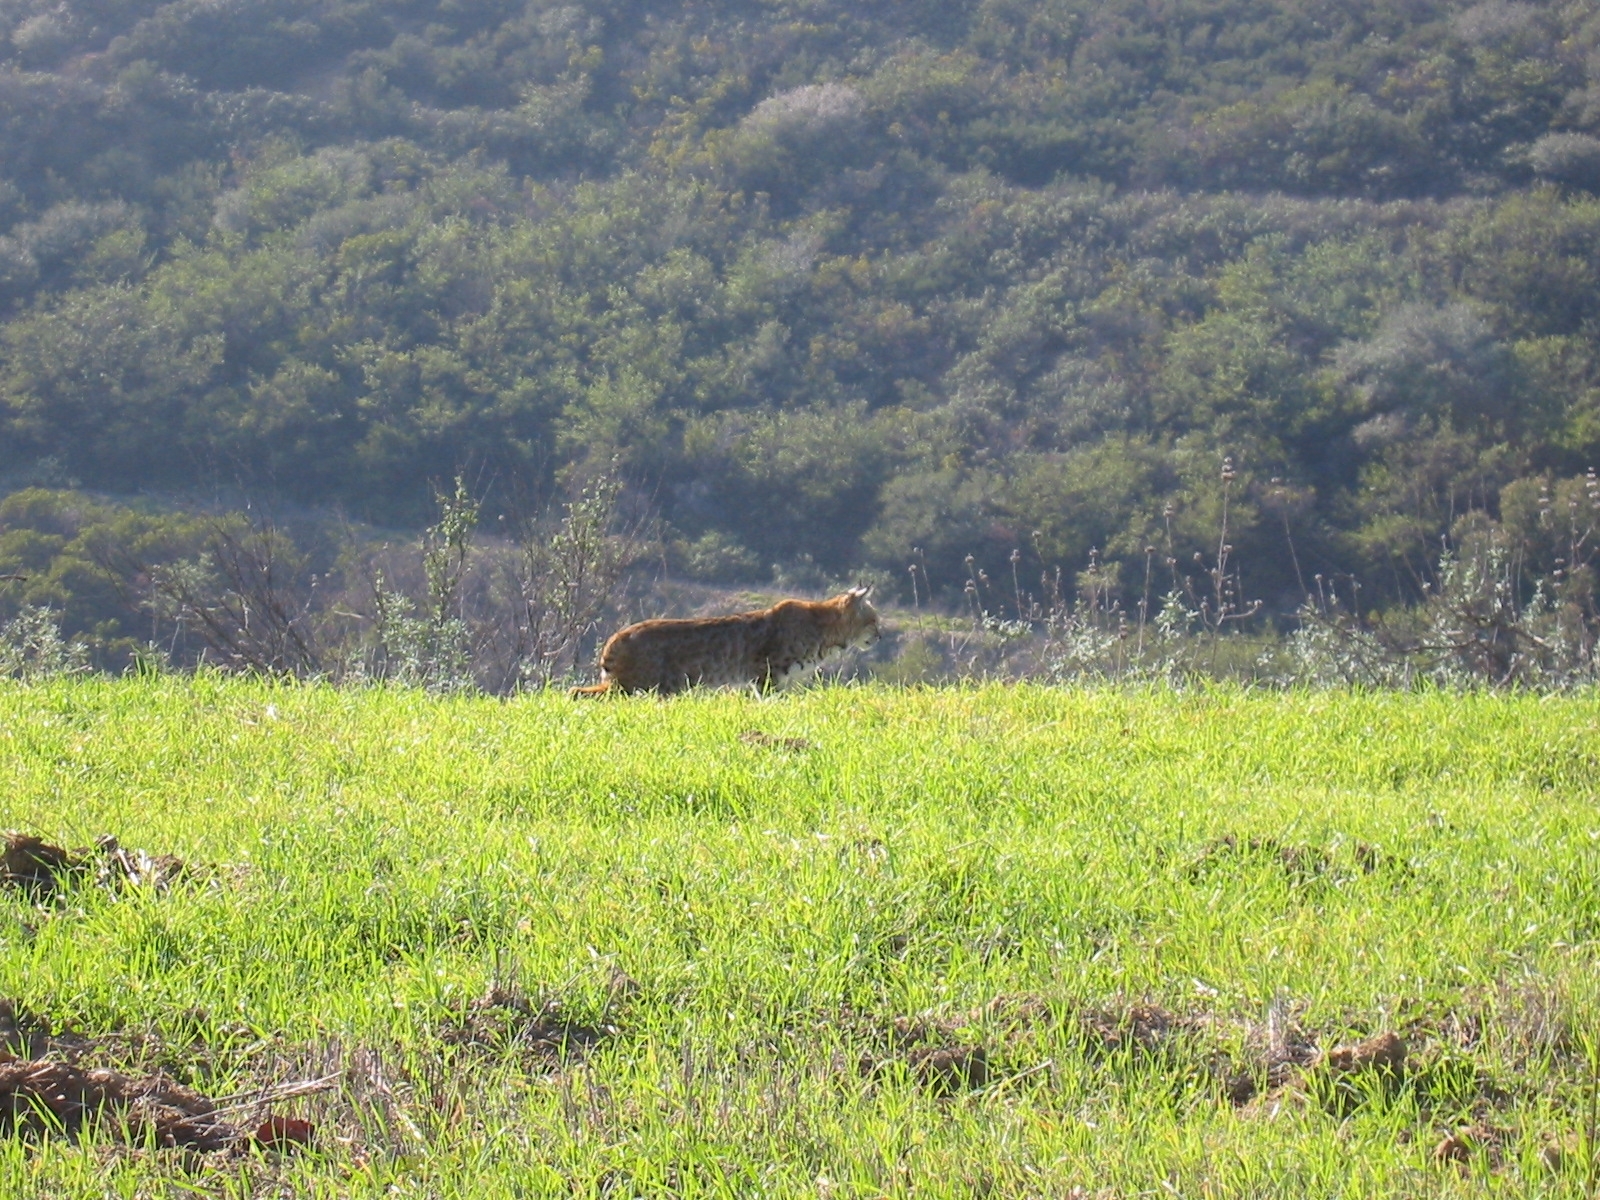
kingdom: Animalia
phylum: Chordata
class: Mammalia
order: Carnivora
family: Felidae
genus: Lynx
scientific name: Lynx rufus
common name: Bobcat
